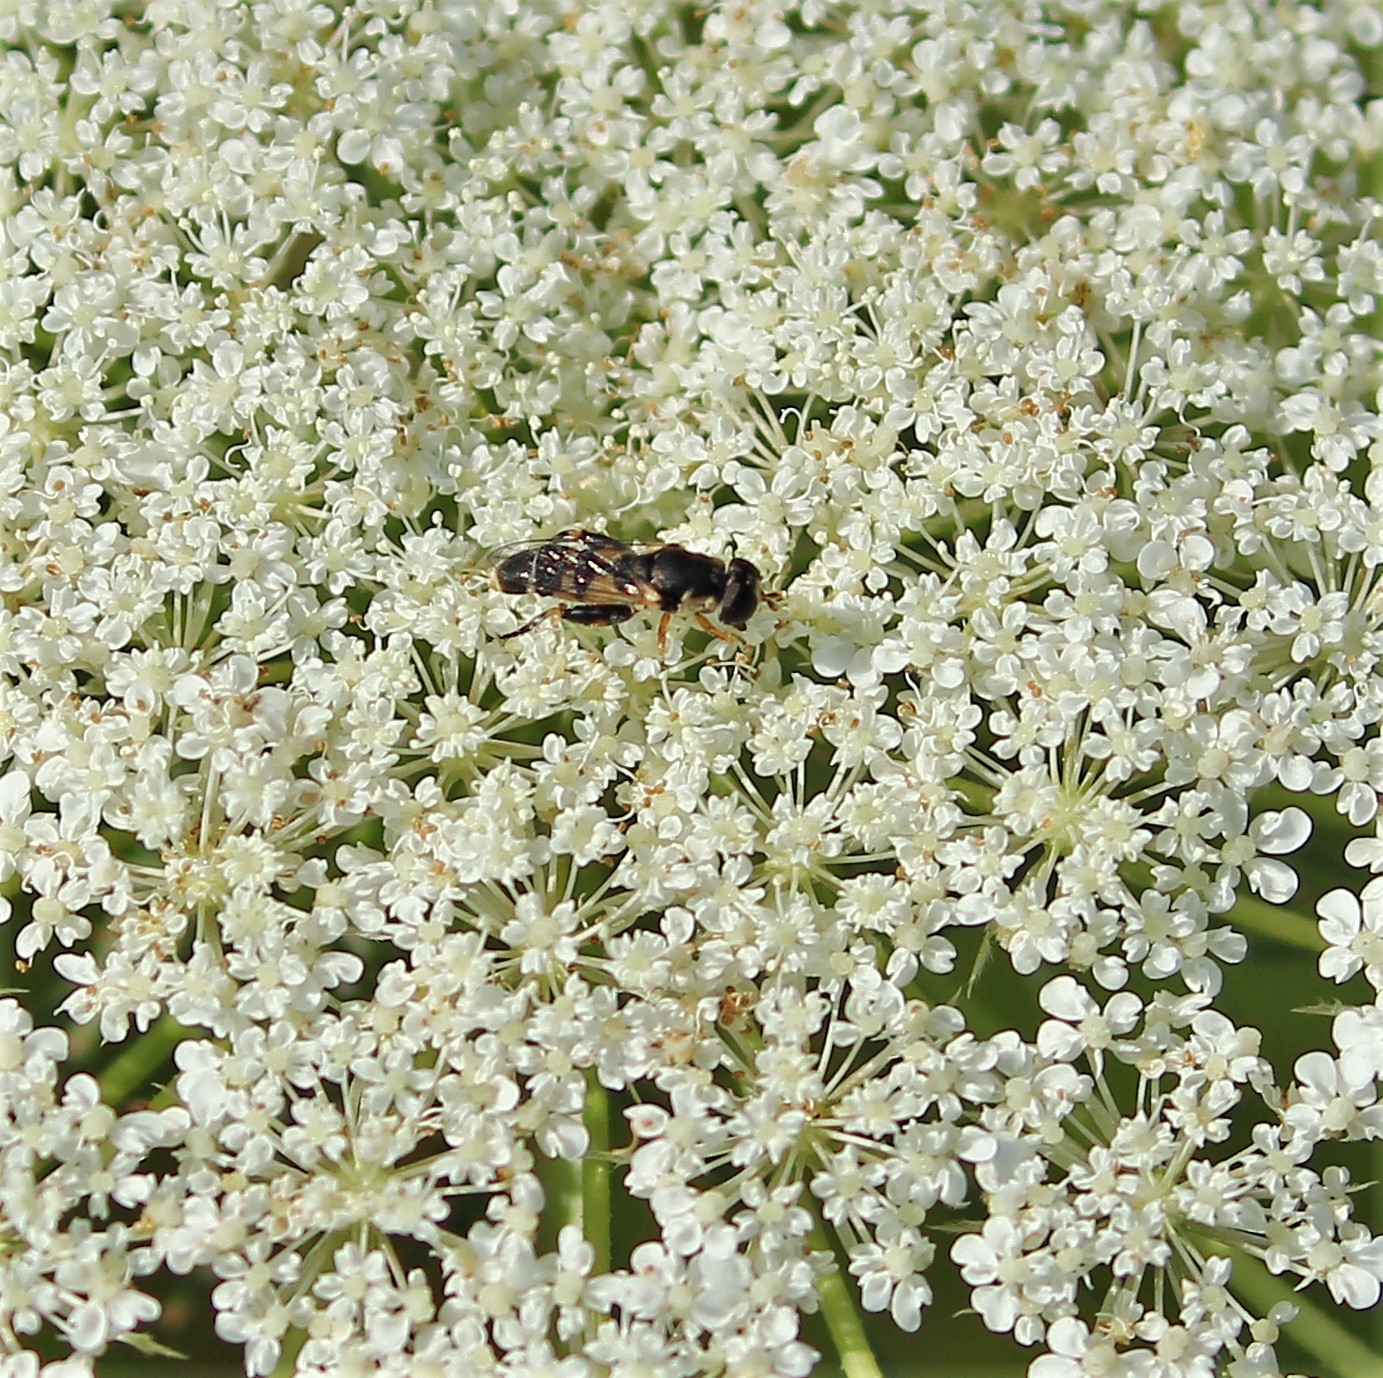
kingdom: Animalia
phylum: Arthropoda
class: Insecta
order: Diptera
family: Syrphidae
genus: Syritta
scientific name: Syritta pipiens
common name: Hover fly
